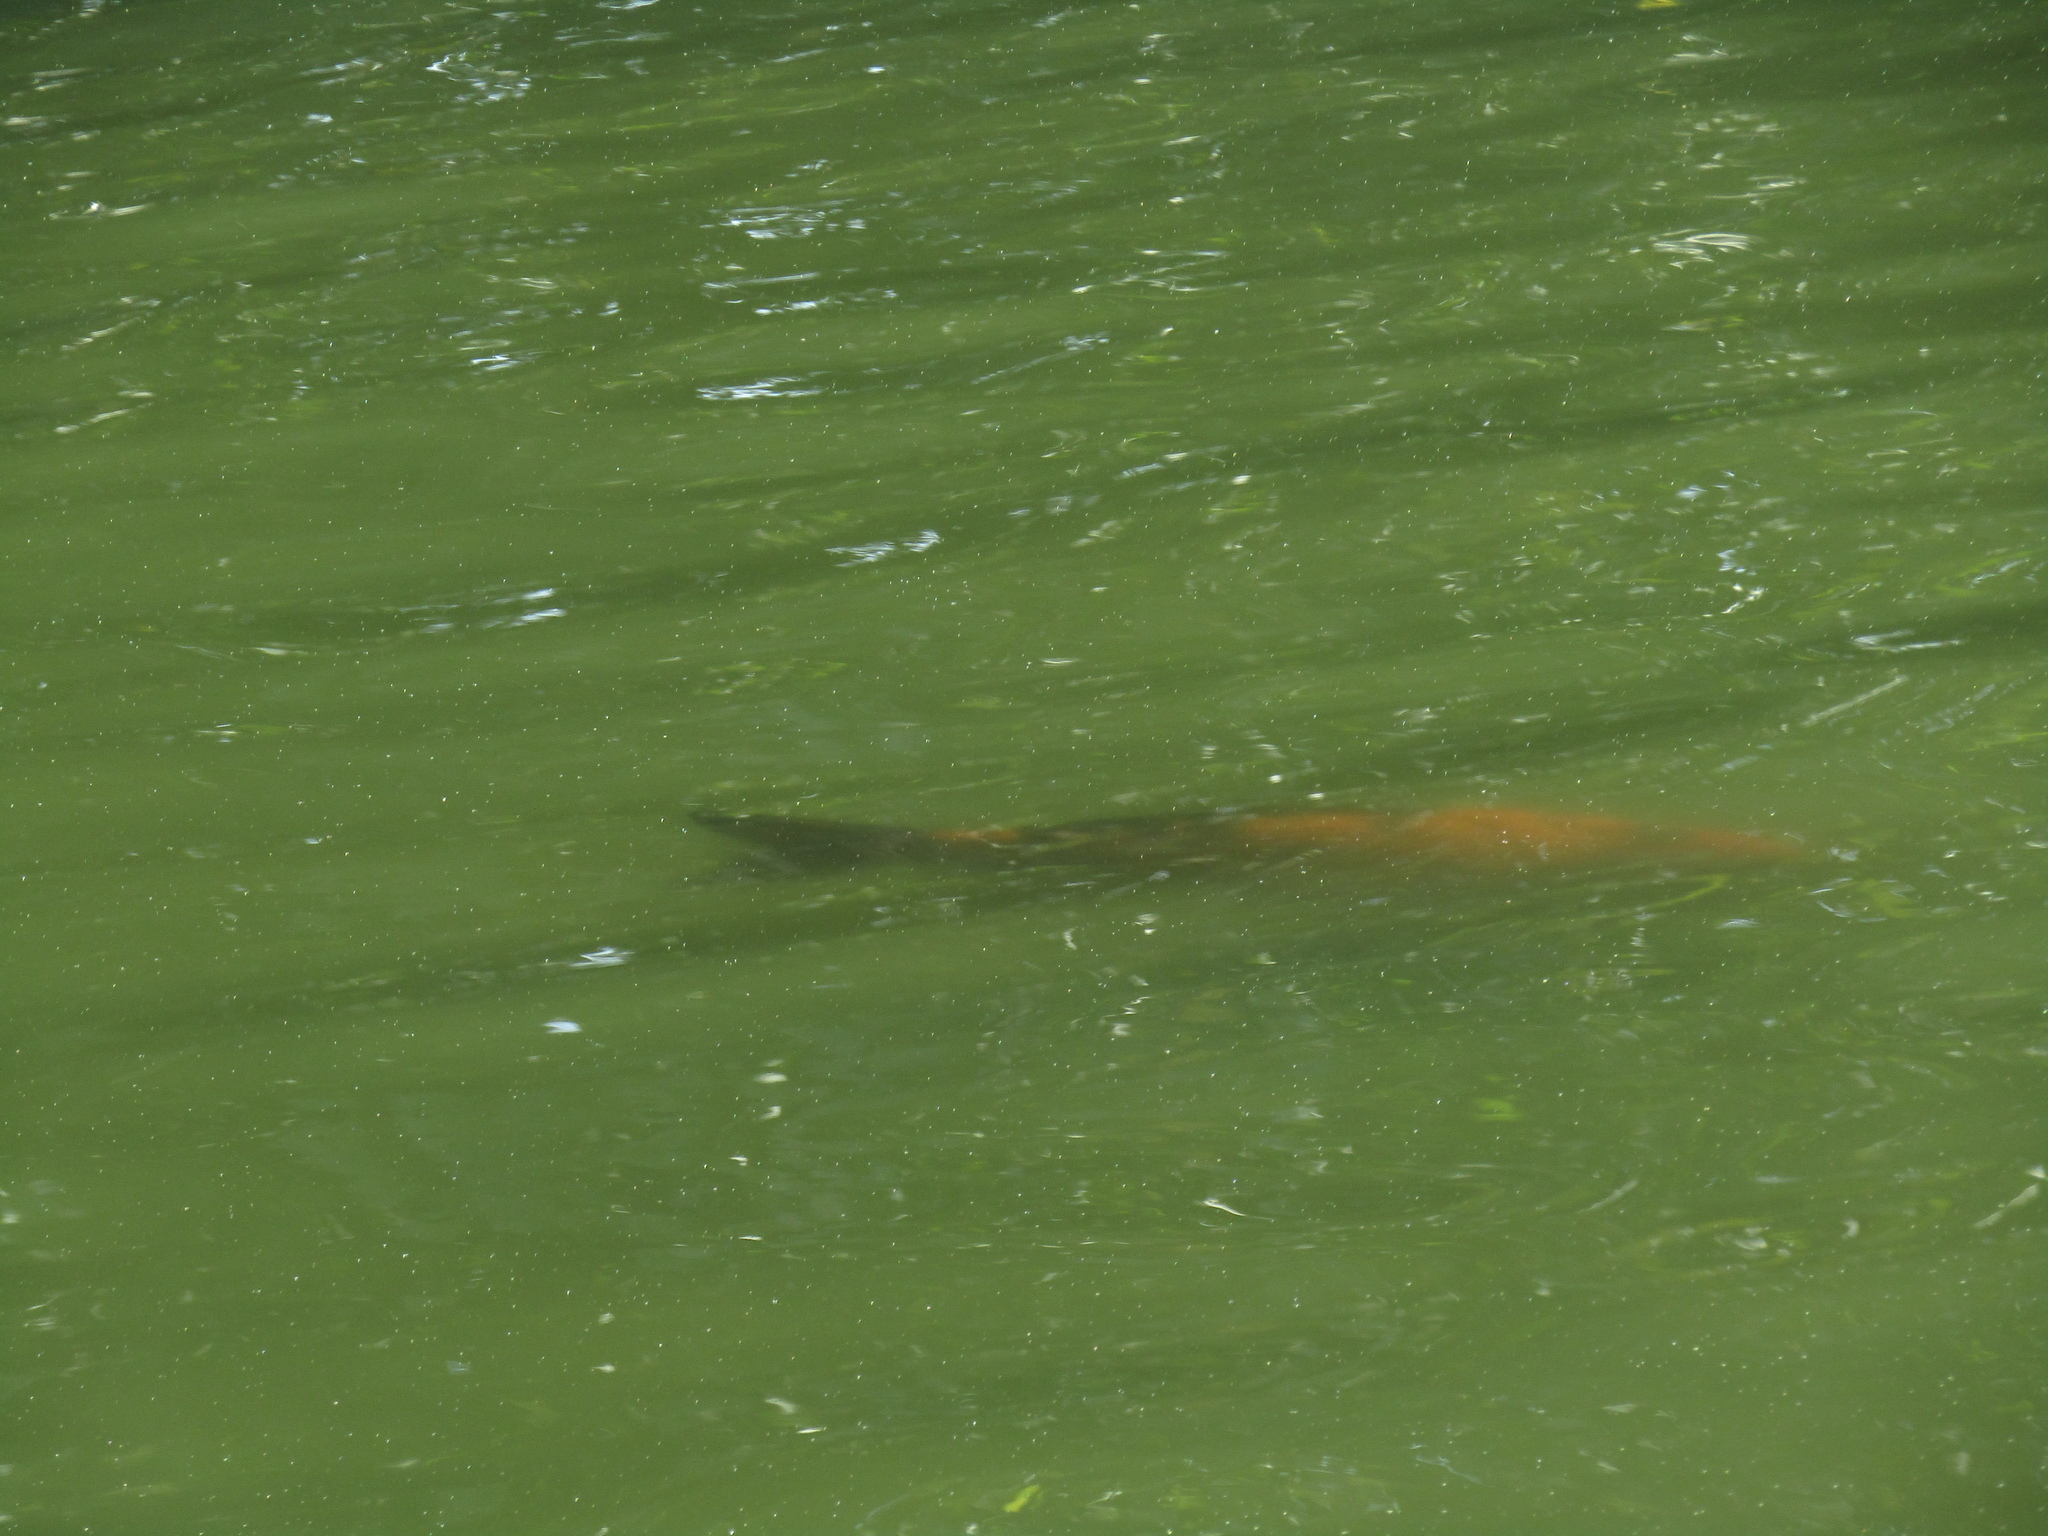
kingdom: Animalia
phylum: Chordata
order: Cypriniformes
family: Cyprinidae
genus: Cyprinus
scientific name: Cyprinus rubrofuscus
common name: Koi
